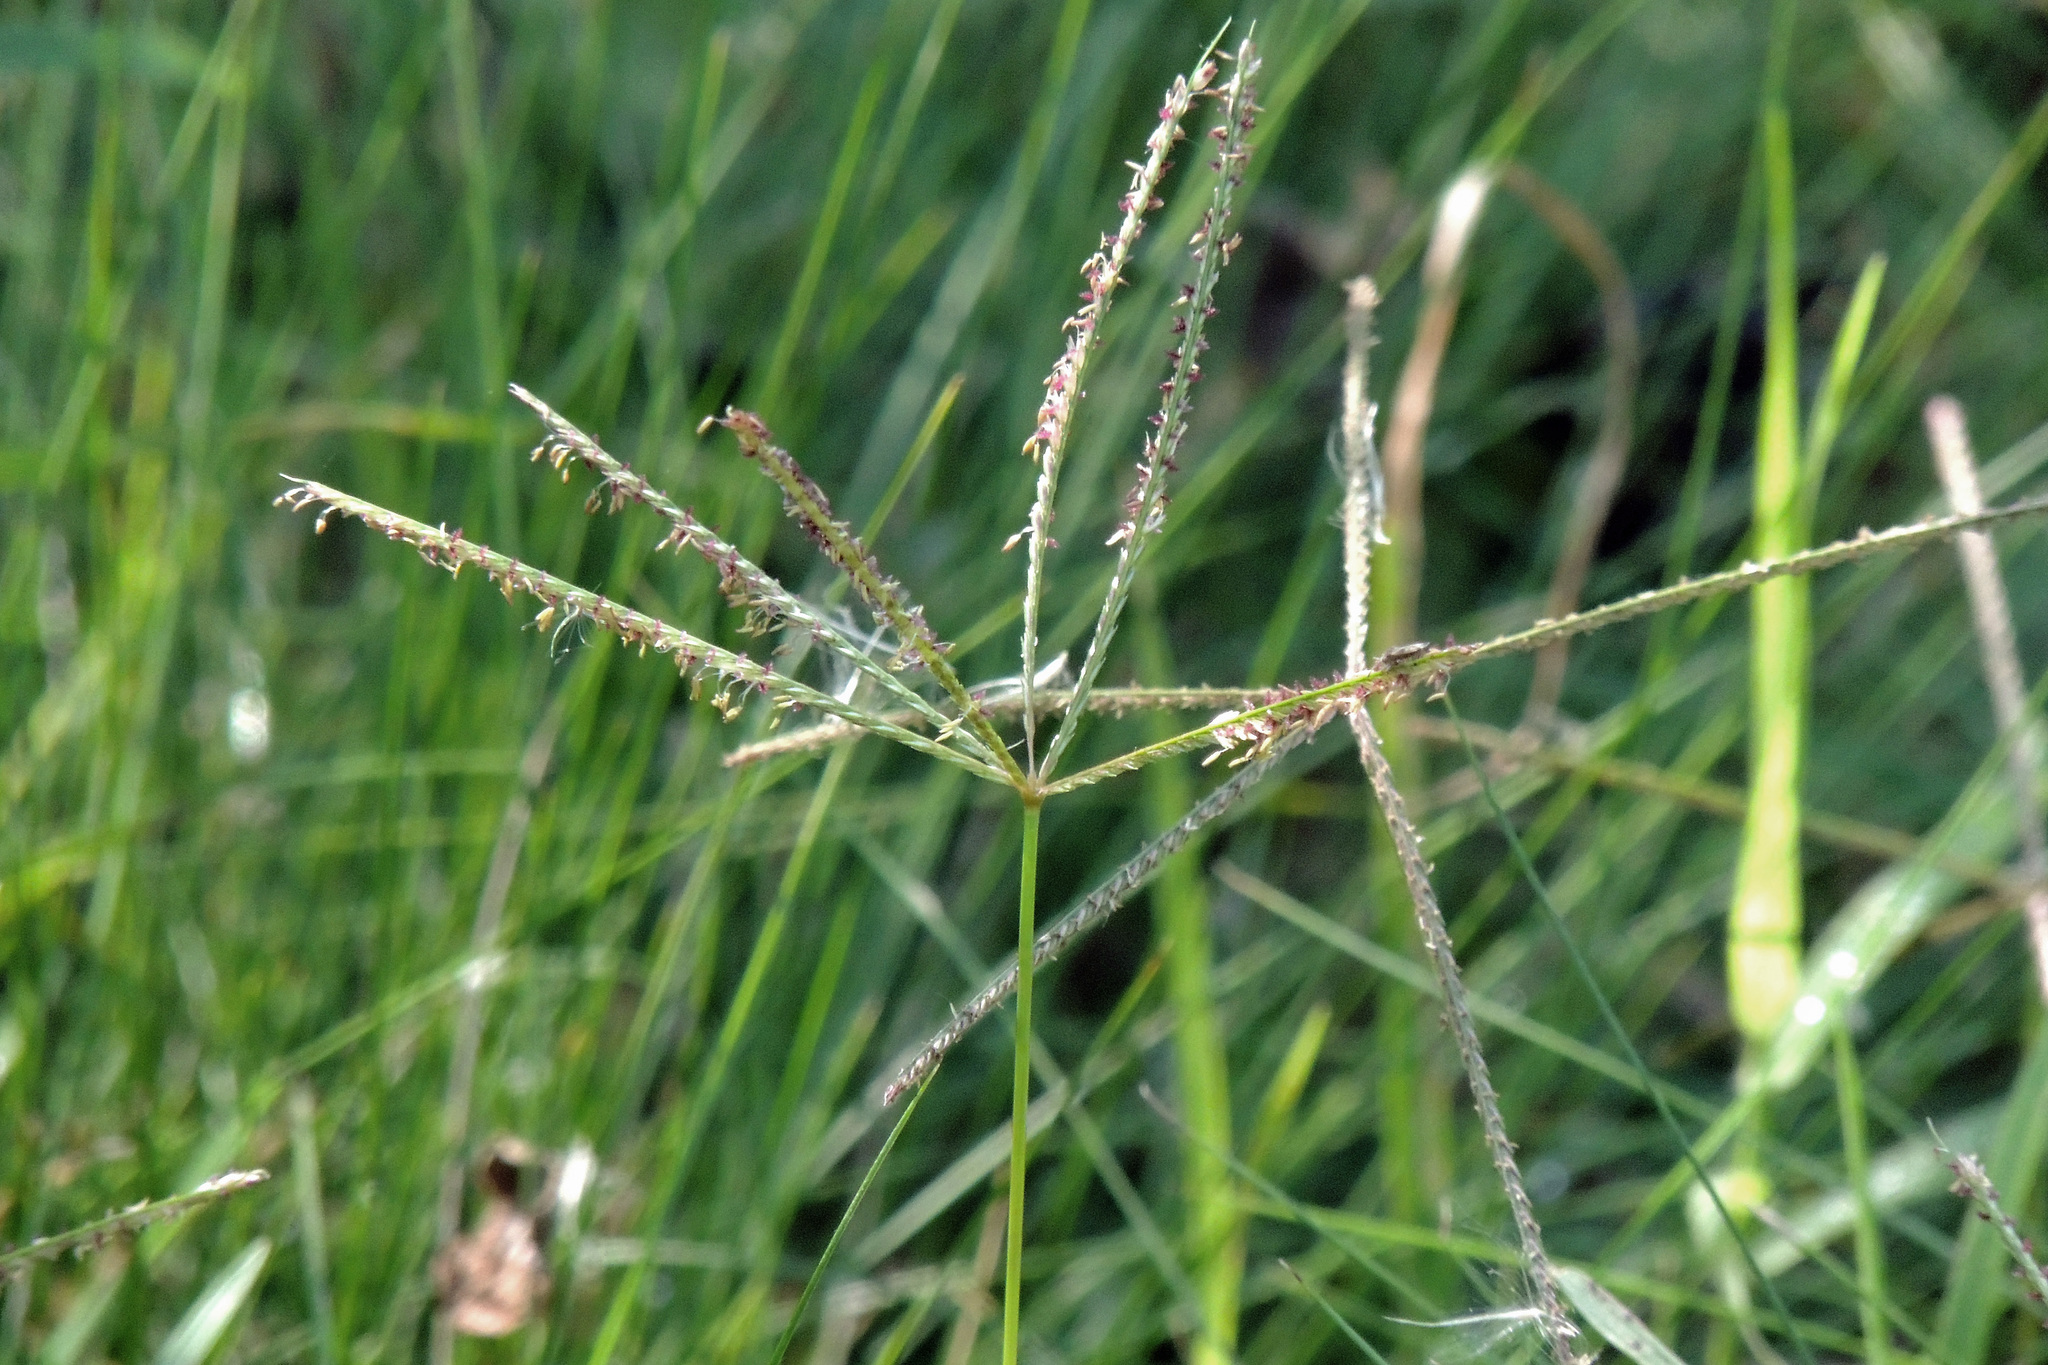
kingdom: Plantae
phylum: Tracheophyta
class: Liliopsida
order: Poales
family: Poaceae
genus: Cynodon
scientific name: Cynodon dactylon
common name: Bermuda grass
